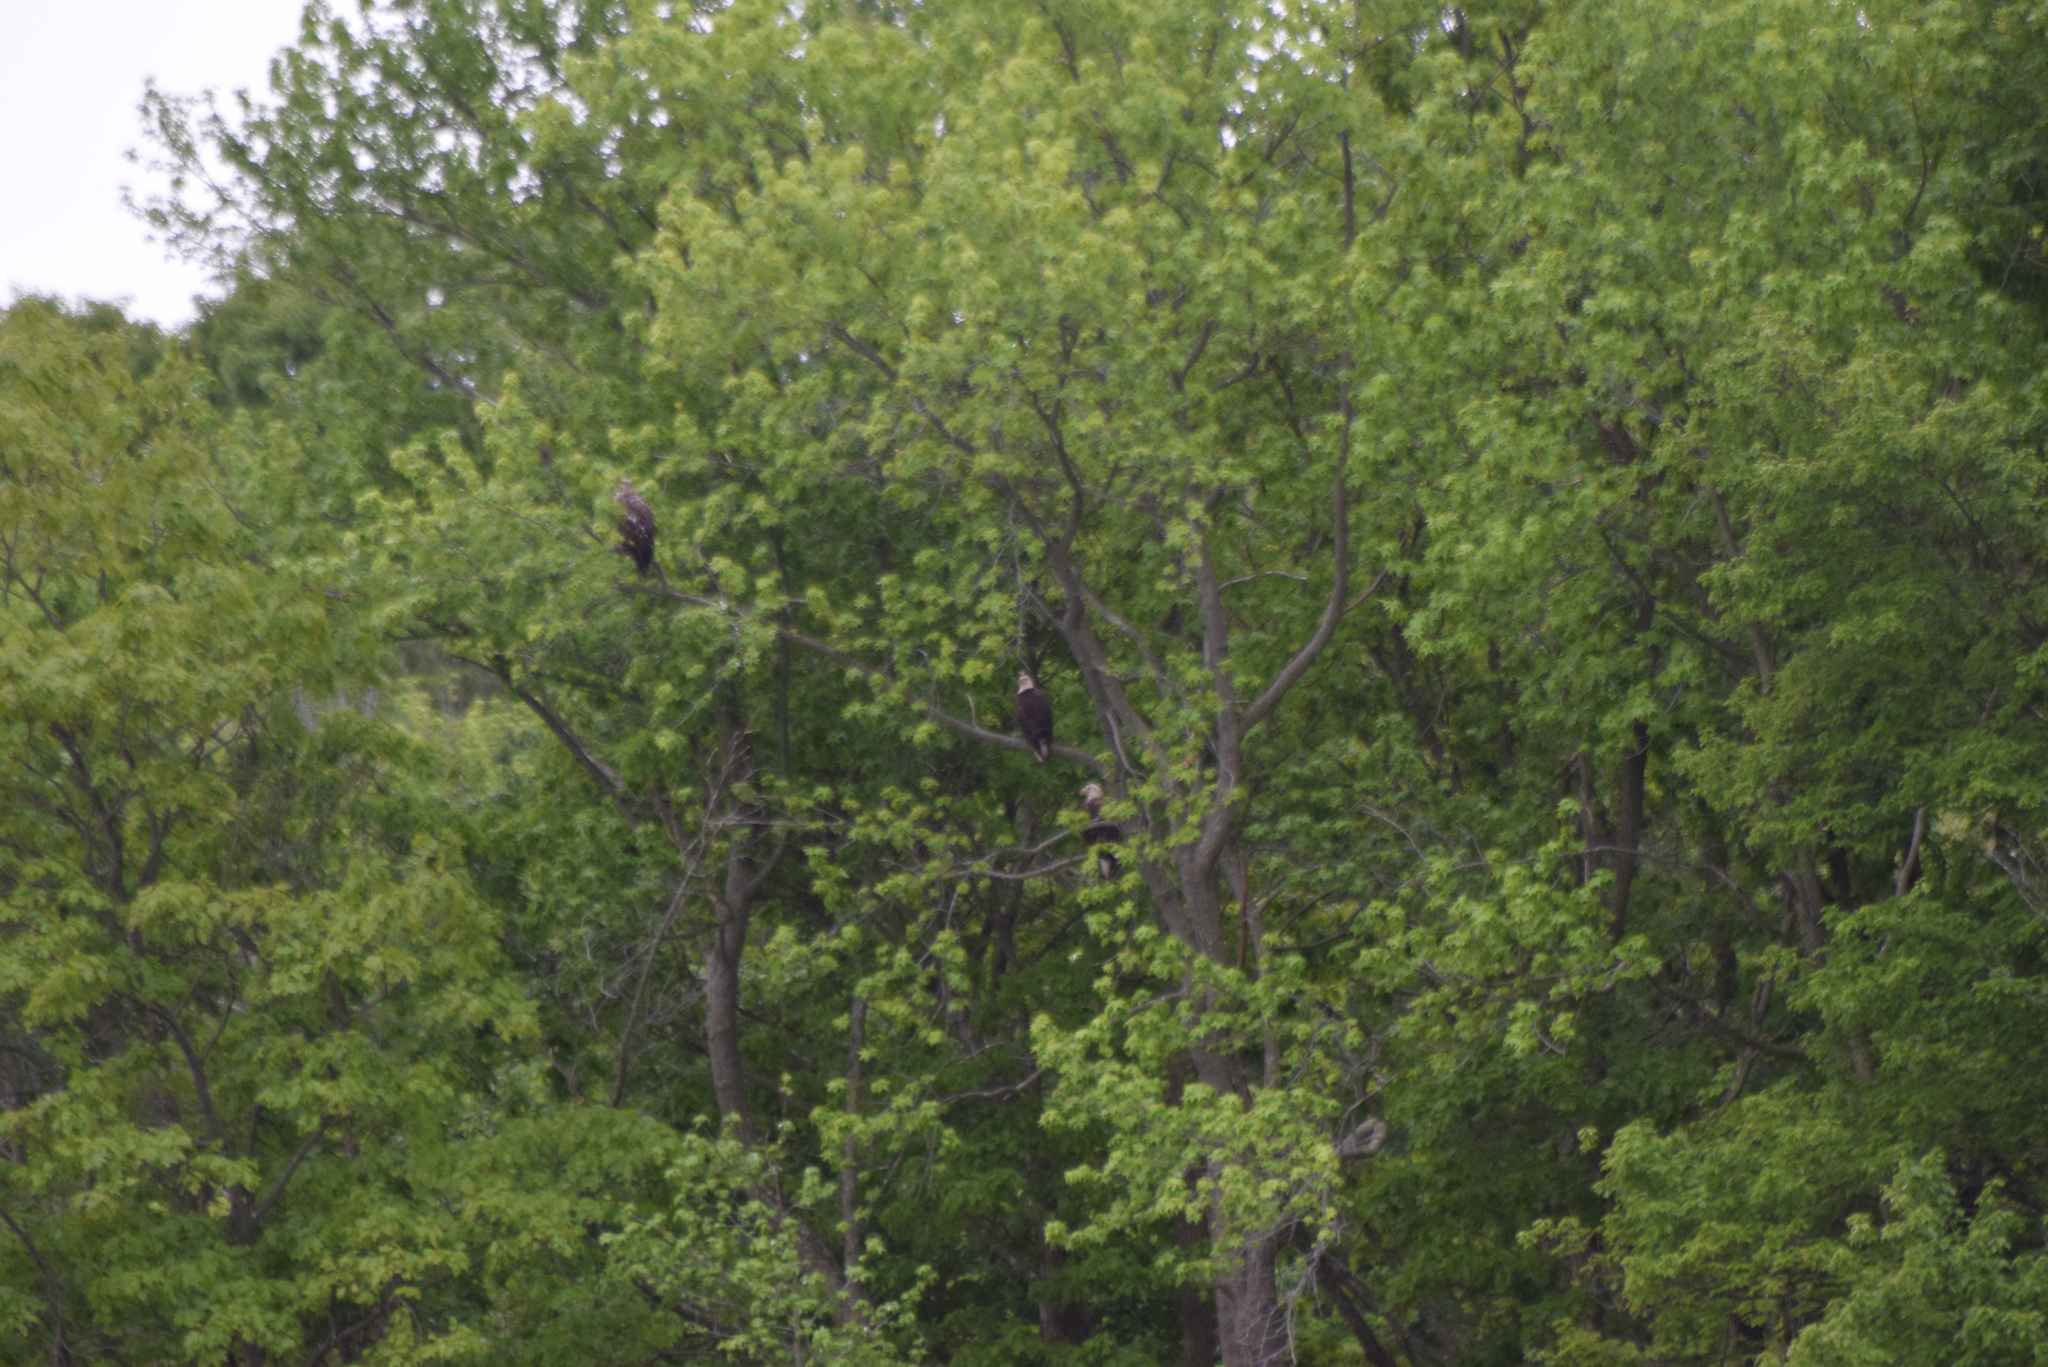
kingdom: Animalia
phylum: Chordata
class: Aves
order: Accipitriformes
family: Accipitridae
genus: Haliaeetus
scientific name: Haliaeetus leucocephalus
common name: Bald eagle
